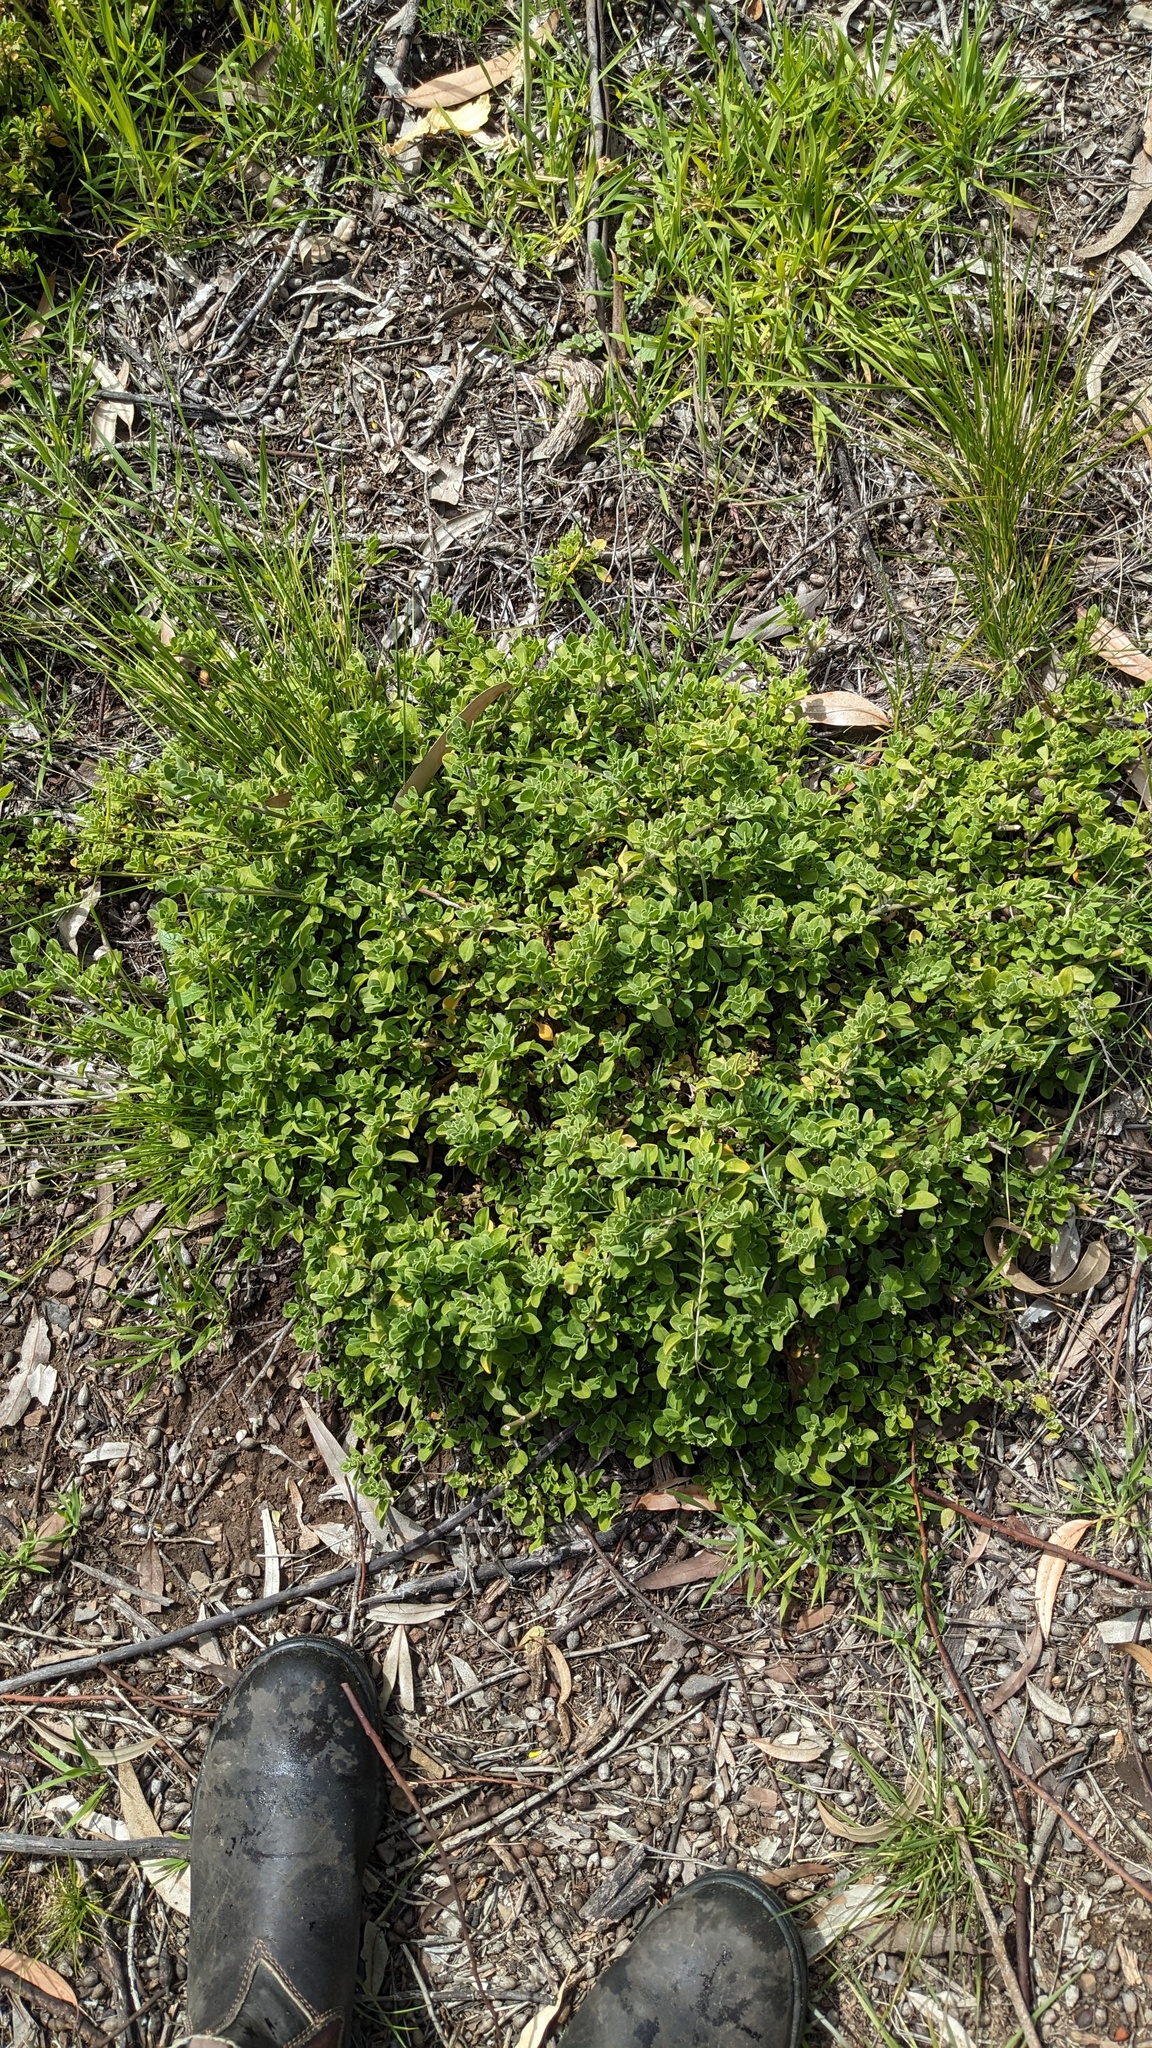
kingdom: Plantae
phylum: Tracheophyta
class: Magnoliopsida
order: Caryophyllales
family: Aizoaceae
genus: Aizoon
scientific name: Aizoon pubescens
